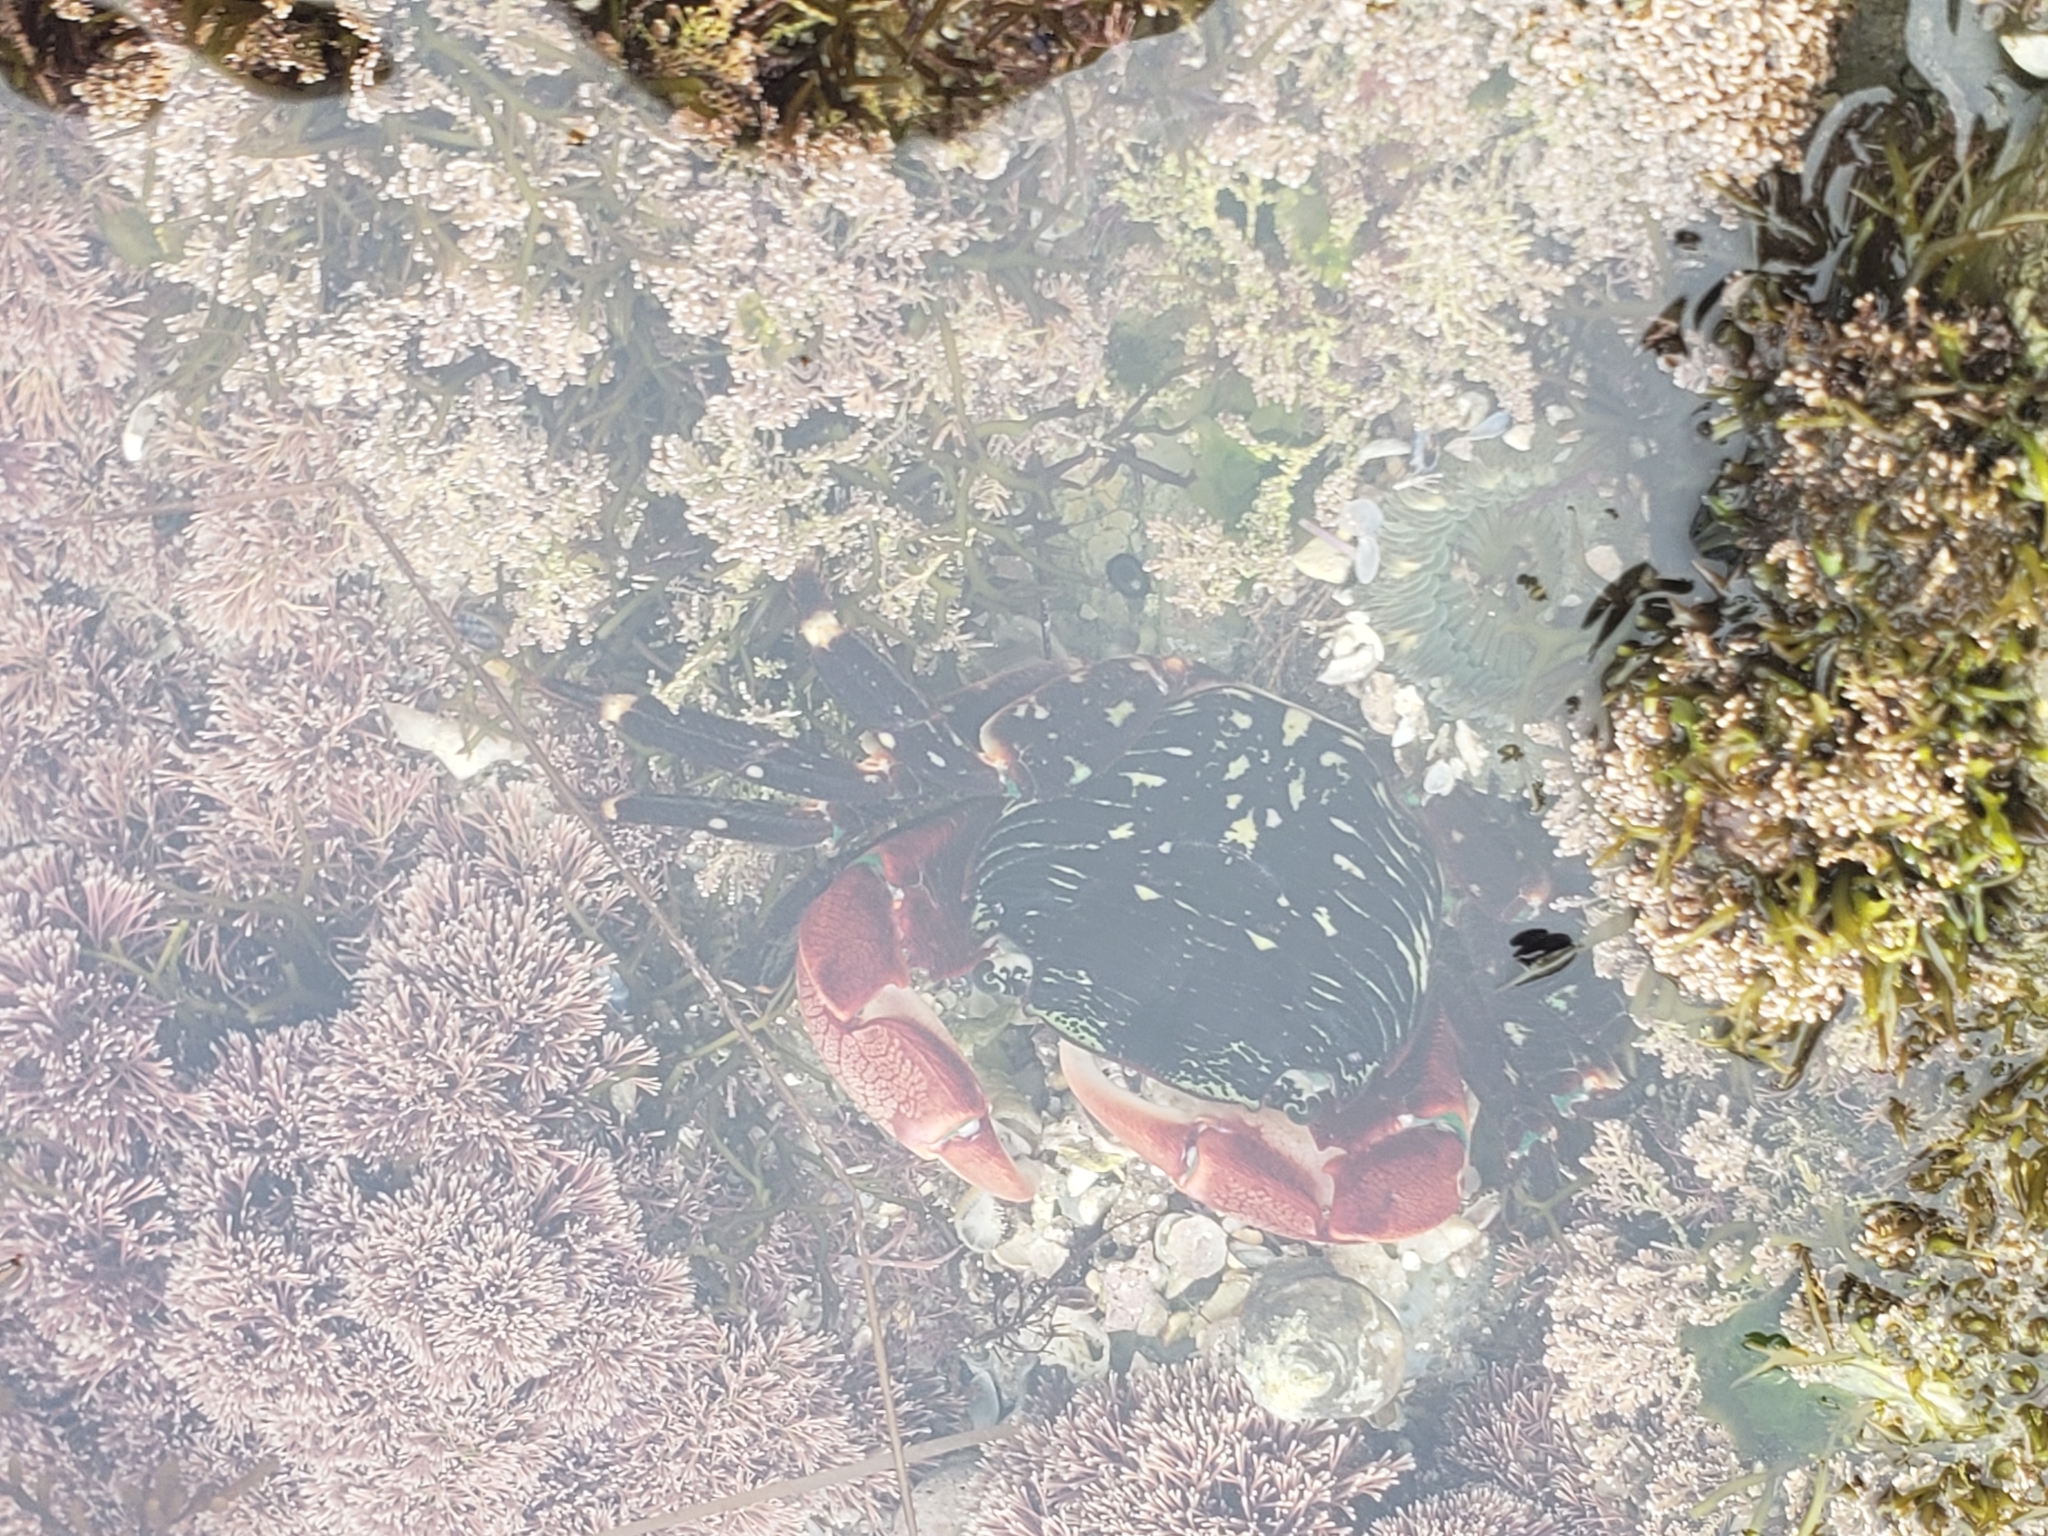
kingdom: Animalia
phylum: Arthropoda
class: Malacostraca
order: Decapoda
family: Grapsidae
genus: Pachygrapsus
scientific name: Pachygrapsus crassipes
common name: Striped shore crab
